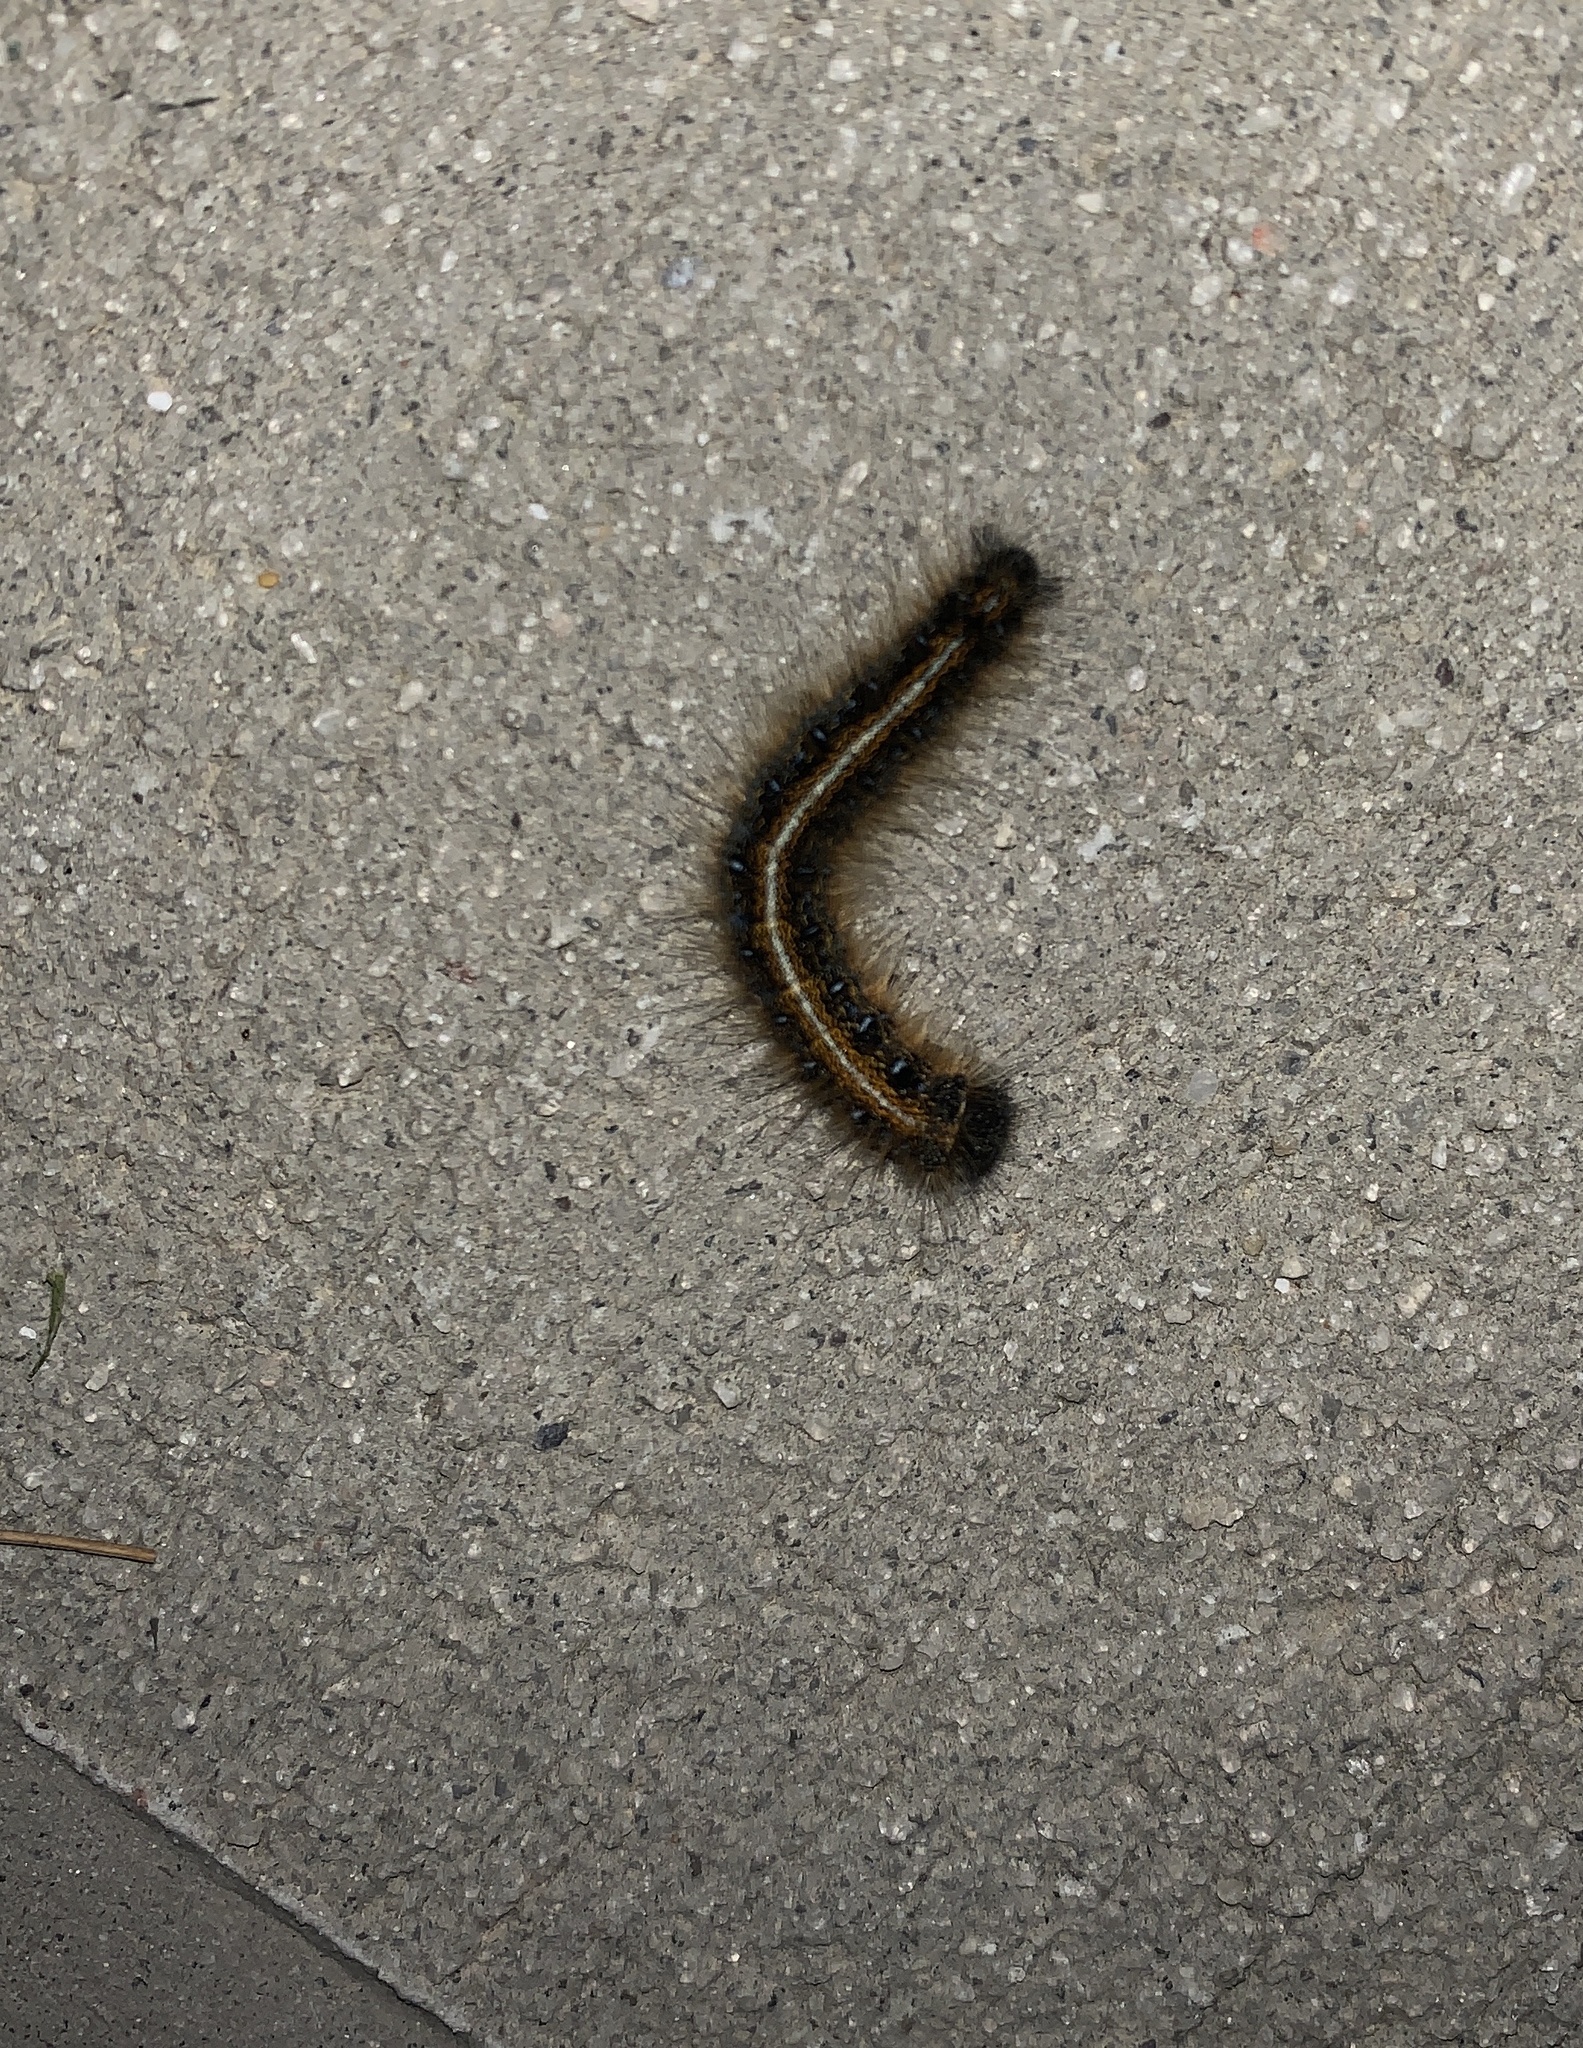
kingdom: Animalia
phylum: Arthropoda
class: Insecta
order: Lepidoptera
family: Lasiocampidae
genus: Malacosoma
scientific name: Malacosoma americana
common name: Eastern tent caterpillar moth
